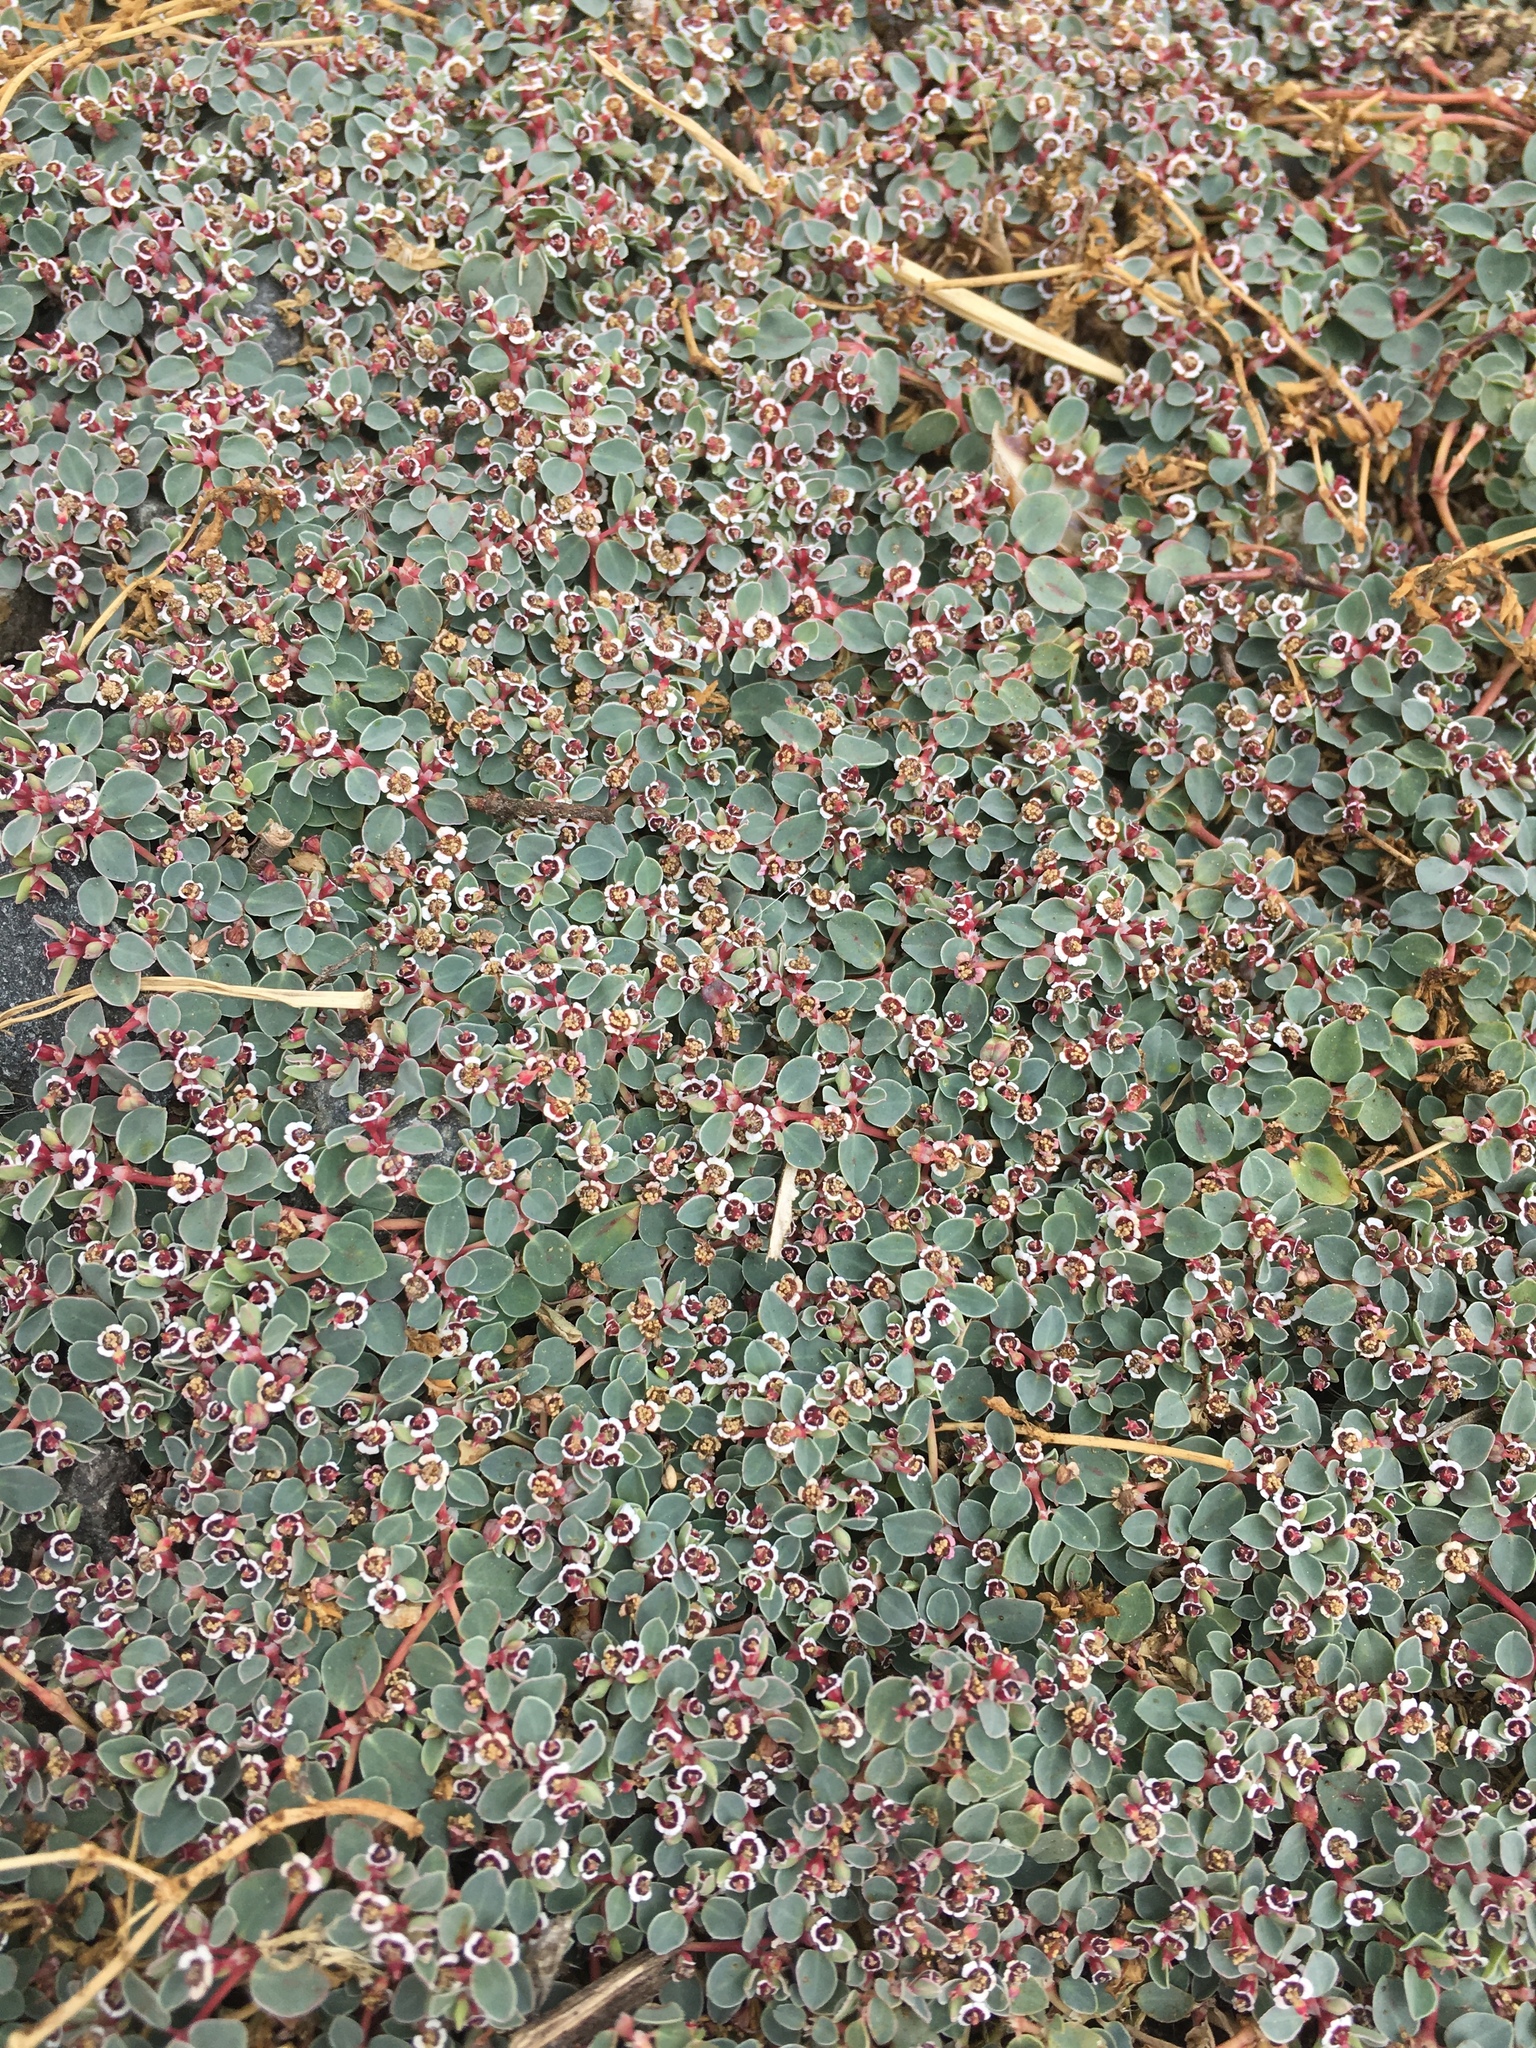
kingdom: Plantae
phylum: Tracheophyta
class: Magnoliopsida
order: Malpighiales
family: Euphorbiaceae
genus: Euphorbia
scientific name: Euphorbia albomarginata
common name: Whitemargin sandmat
